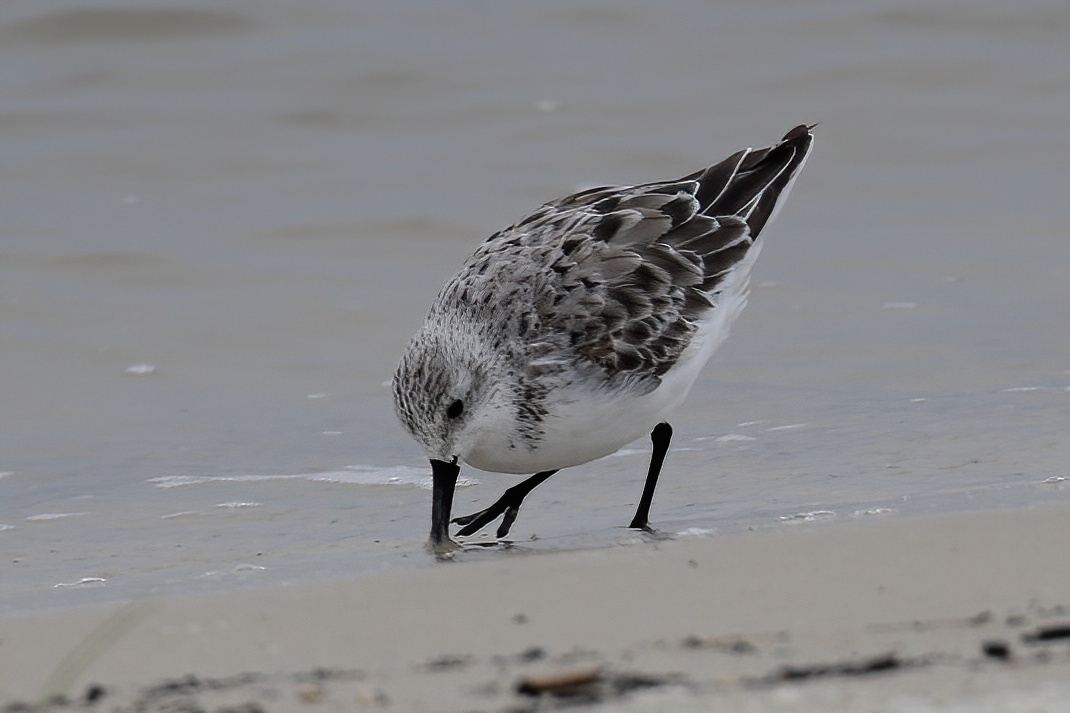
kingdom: Animalia
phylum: Chordata
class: Aves
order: Charadriiformes
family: Scolopacidae
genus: Calidris
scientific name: Calidris alba
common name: Sanderling
